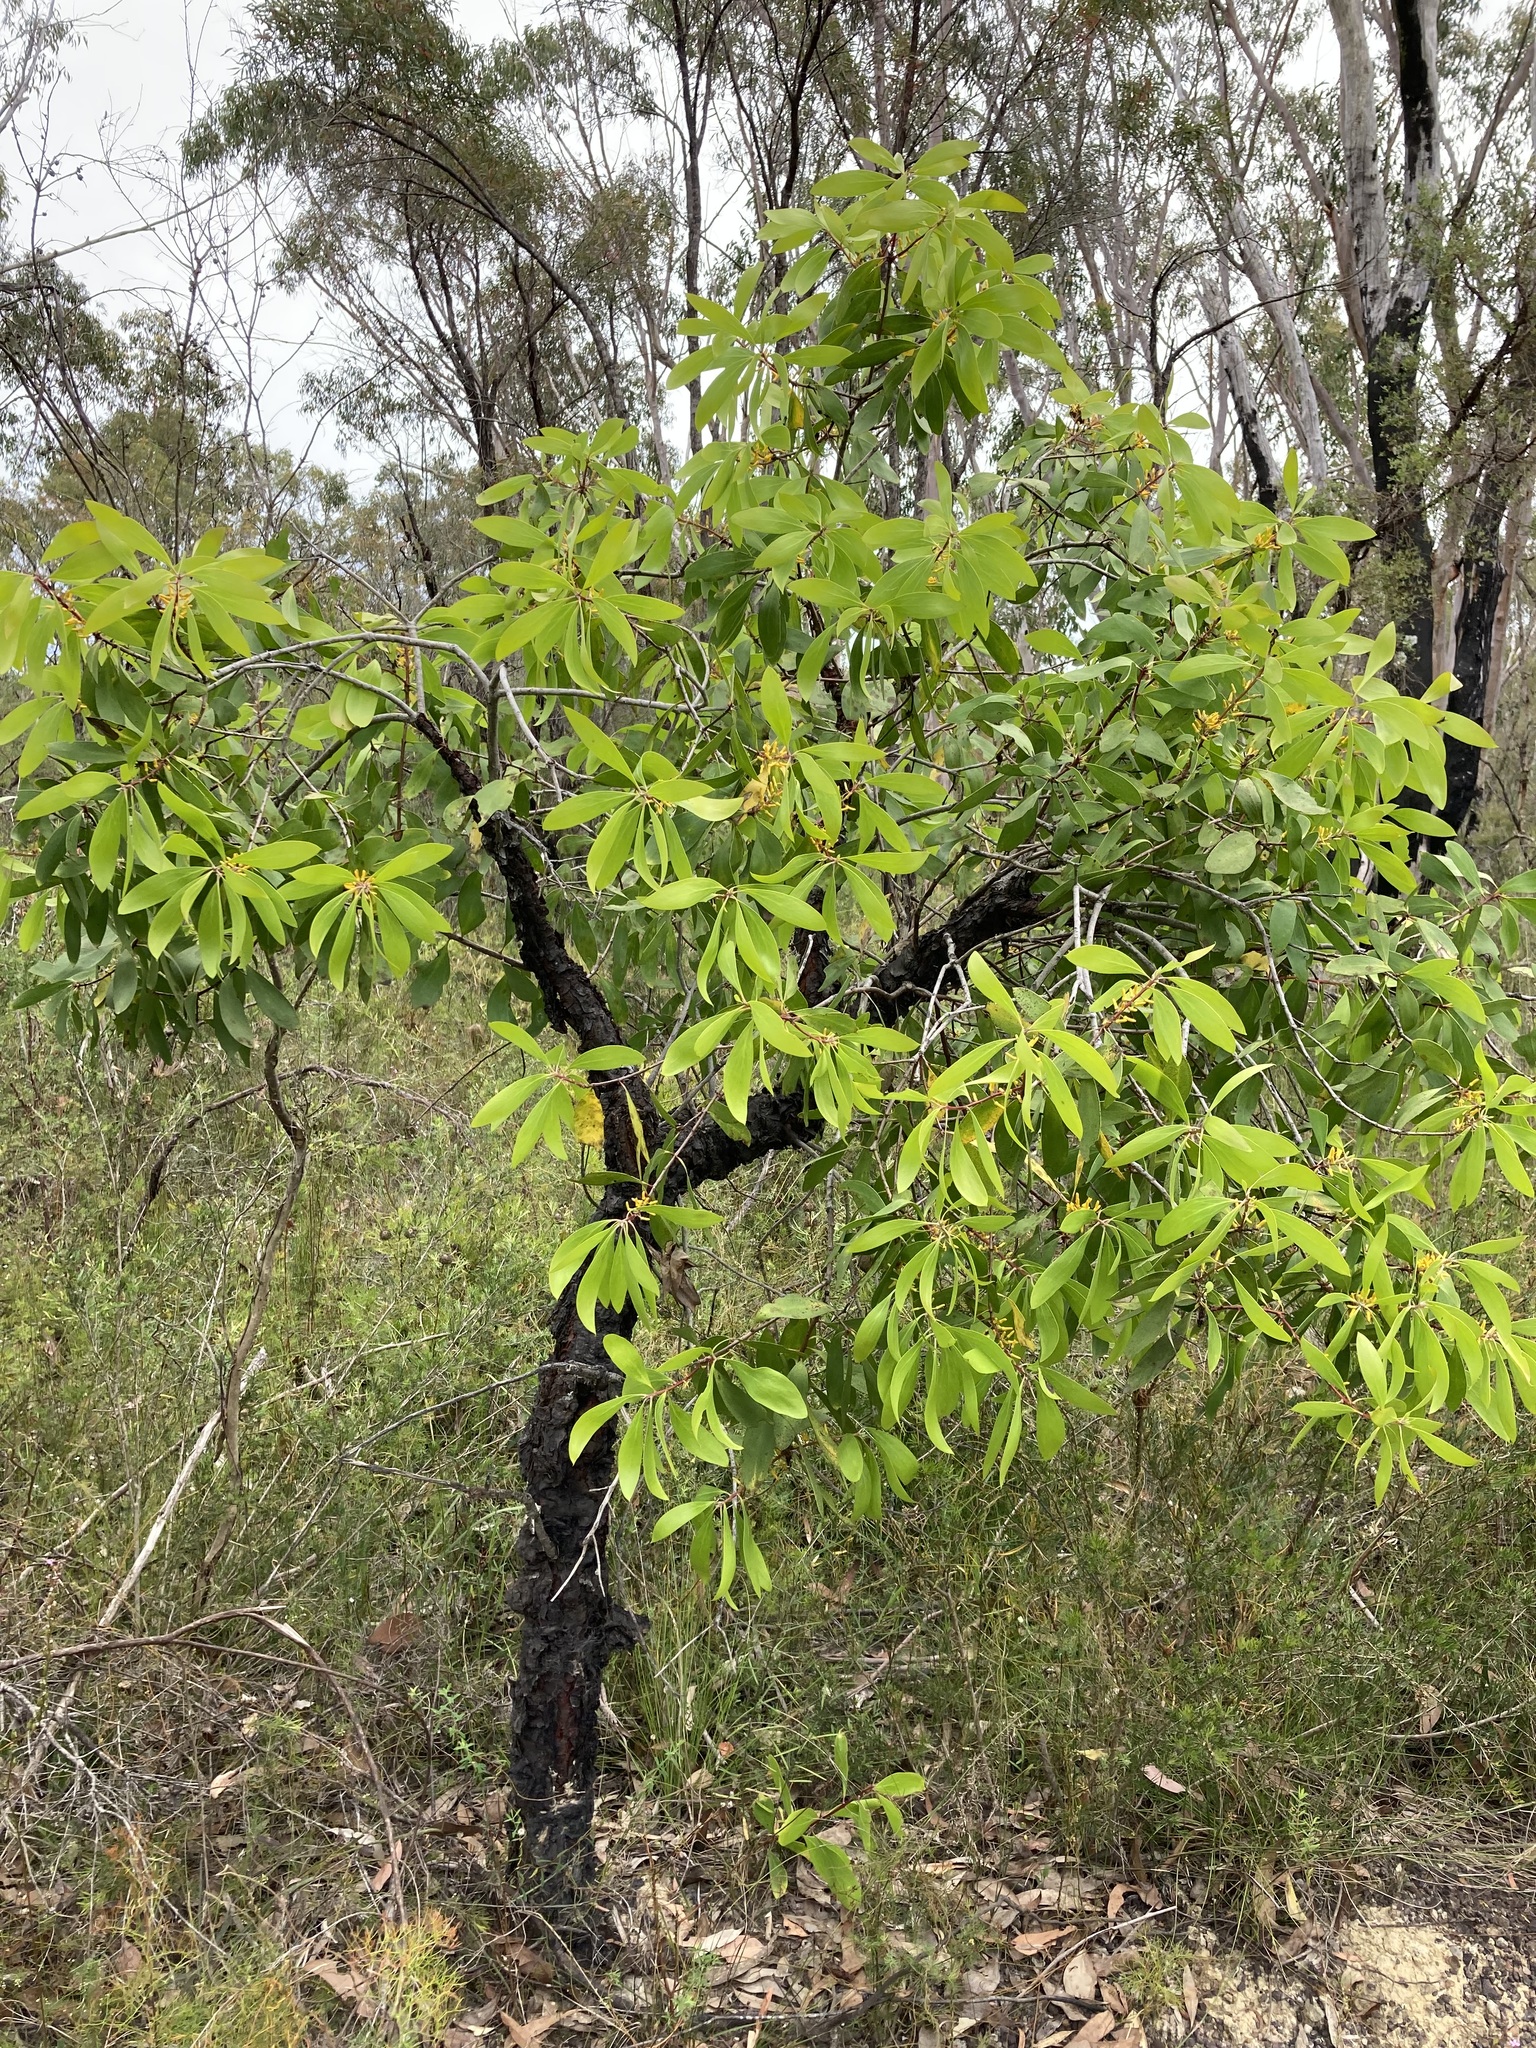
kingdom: Plantae
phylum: Tracheophyta
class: Magnoliopsida
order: Proteales
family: Proteaceae
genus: Persoonia
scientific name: Persoonia levis
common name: Smooth geebung
